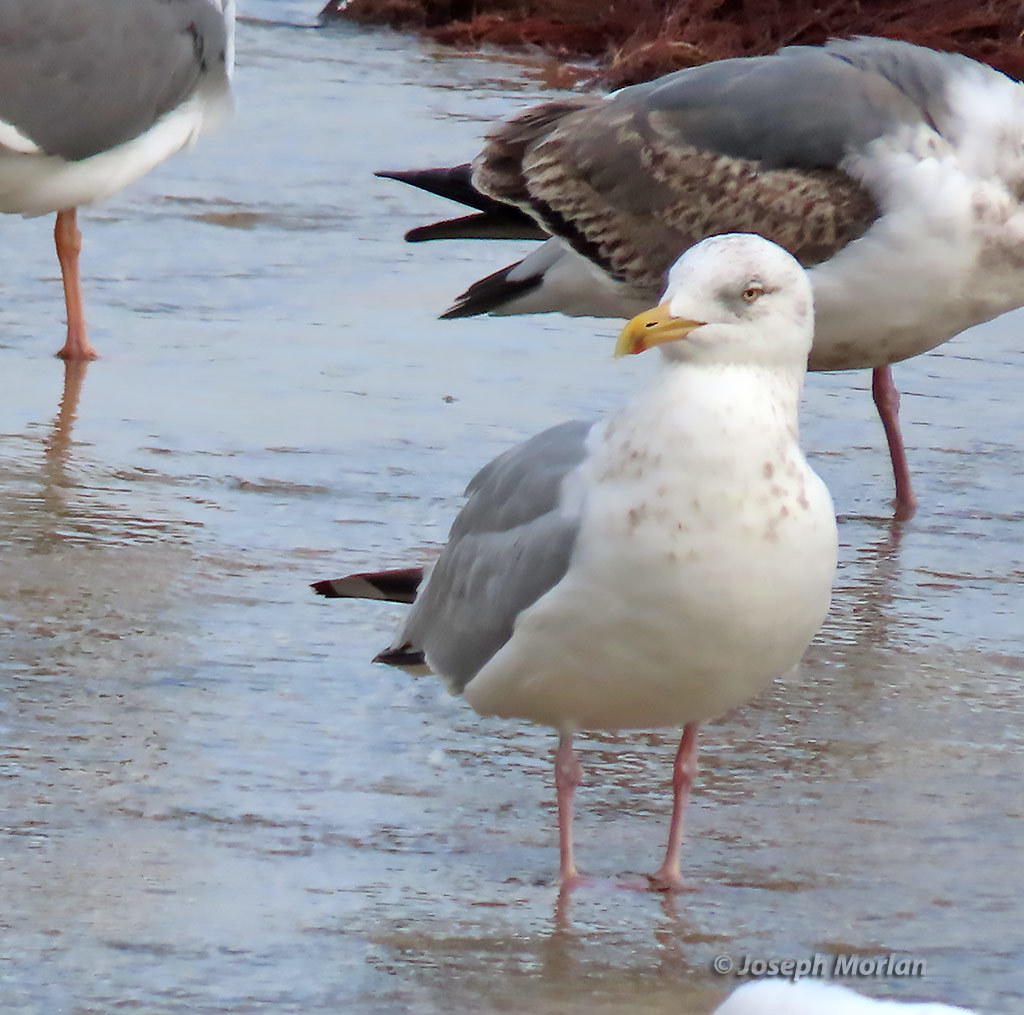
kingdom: Animalia
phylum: Chordata
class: Aves
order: Charadriiformes
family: Laridae
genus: Larus
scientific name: Larus argentatus
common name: Herring gull
